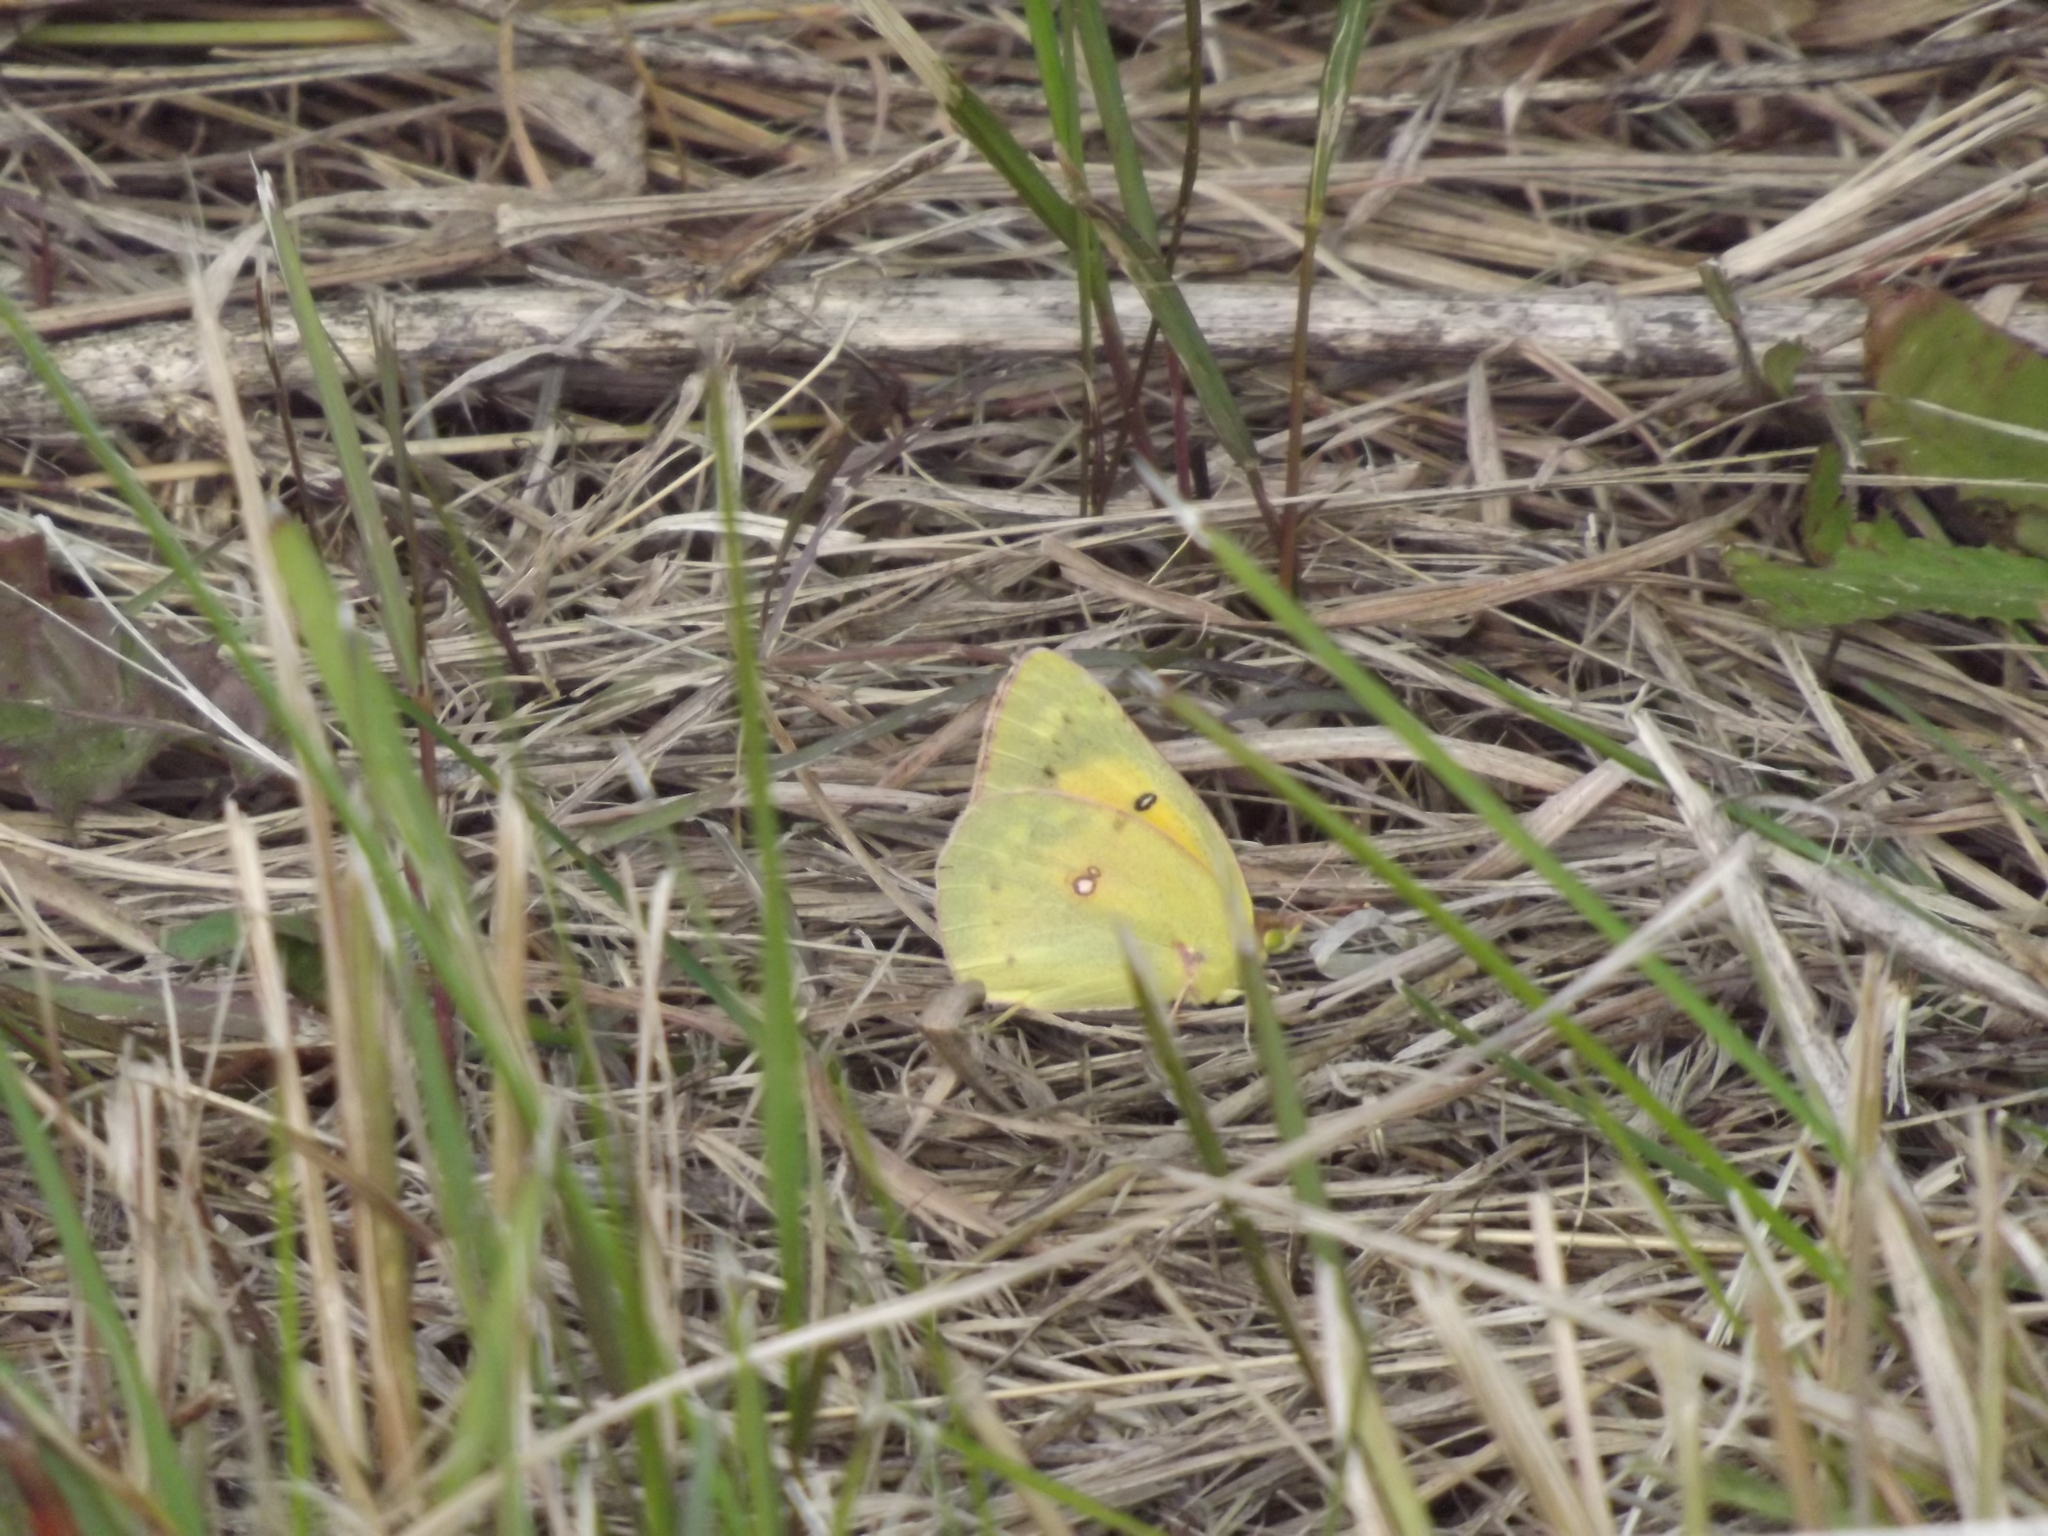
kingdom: Animalia
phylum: Arthropoda
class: Insecta
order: Lepidoptera
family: Pieridae
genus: Colias
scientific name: Colias eurytheme
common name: Alfalfa butterfly
